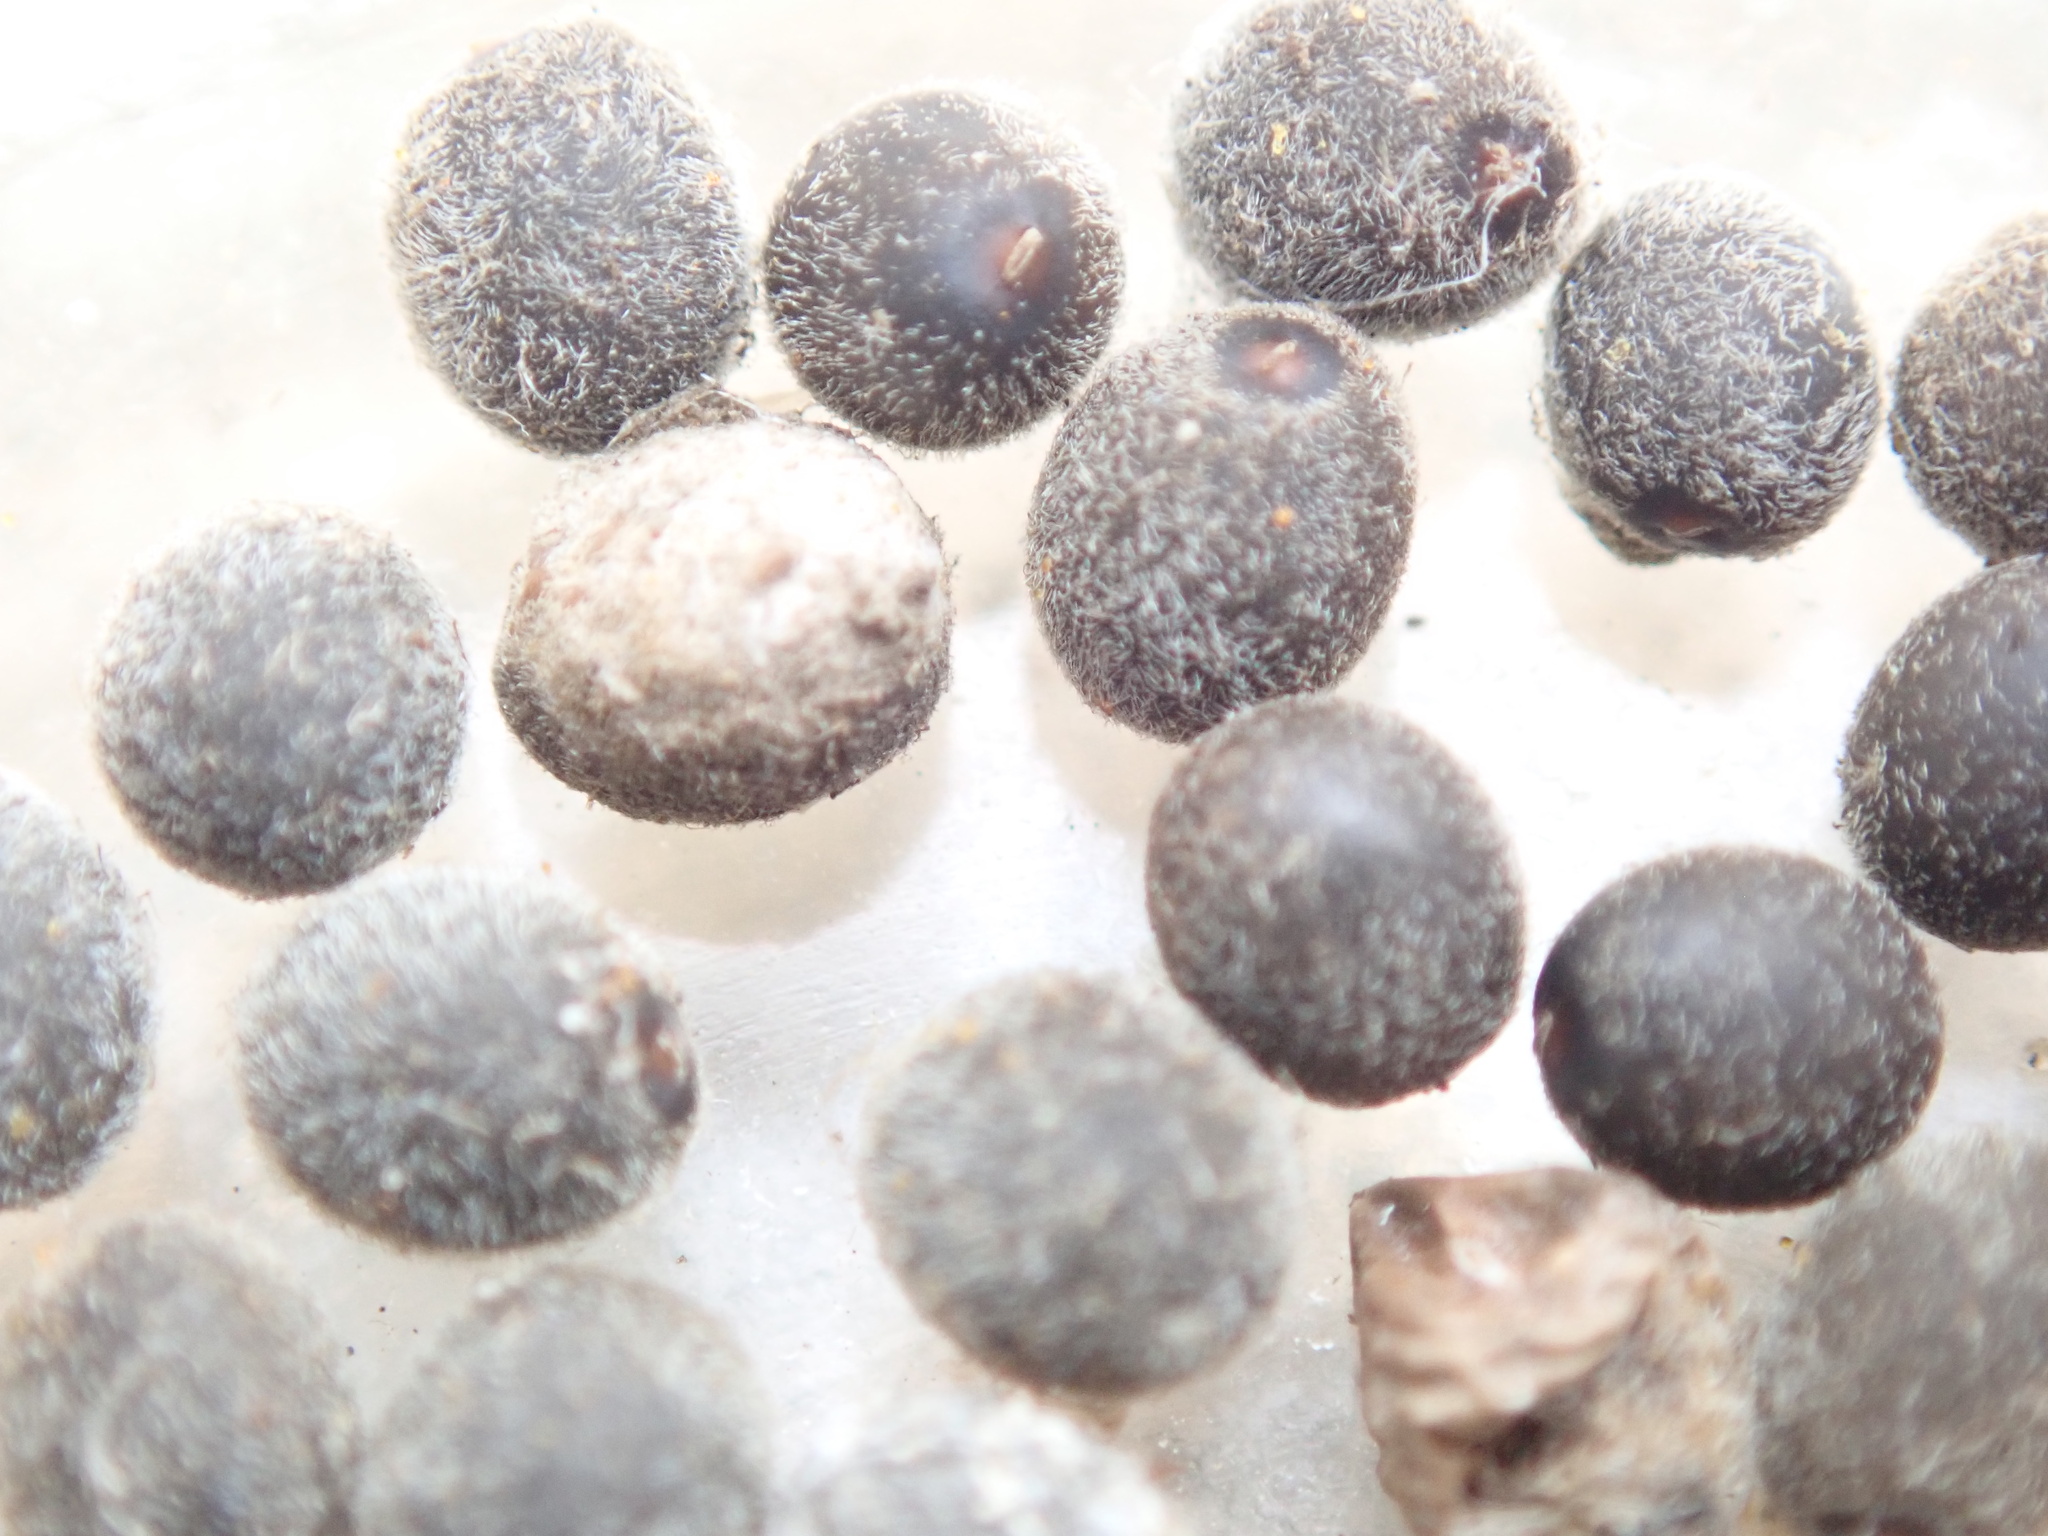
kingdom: Plantae
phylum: Tracheophyta
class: Magnoliopsida
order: Lamiales
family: Lamiaceae
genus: Lepechinia
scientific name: Lepechinia calycina
